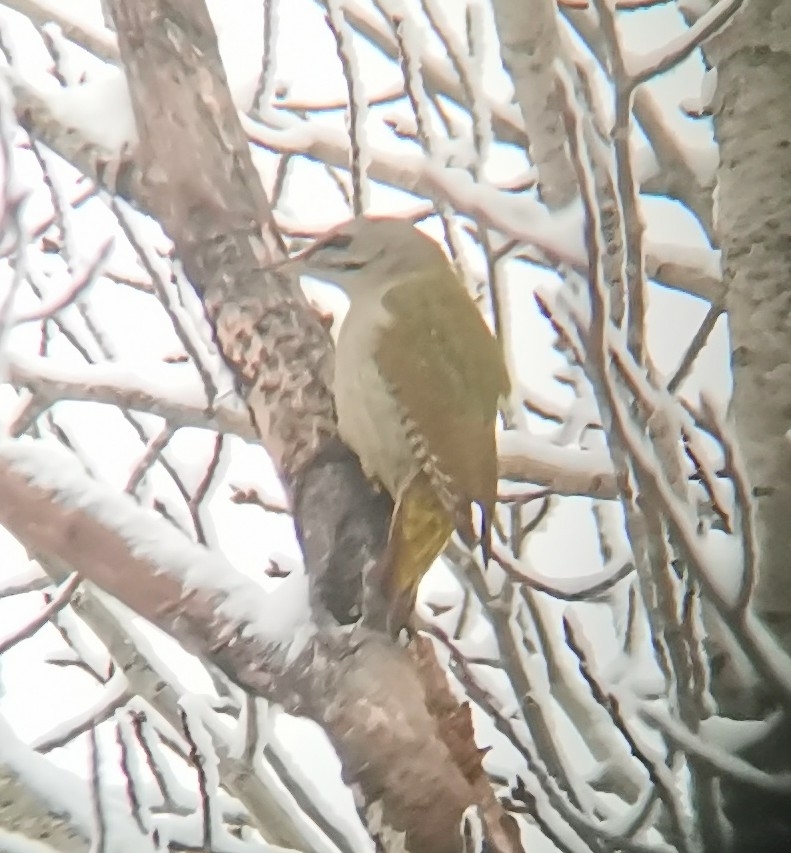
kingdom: Animalia
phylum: Chordata
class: Aves
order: Piciformes
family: Picidae
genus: Picus
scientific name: Picus canus
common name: Grey-headed woodpecker
